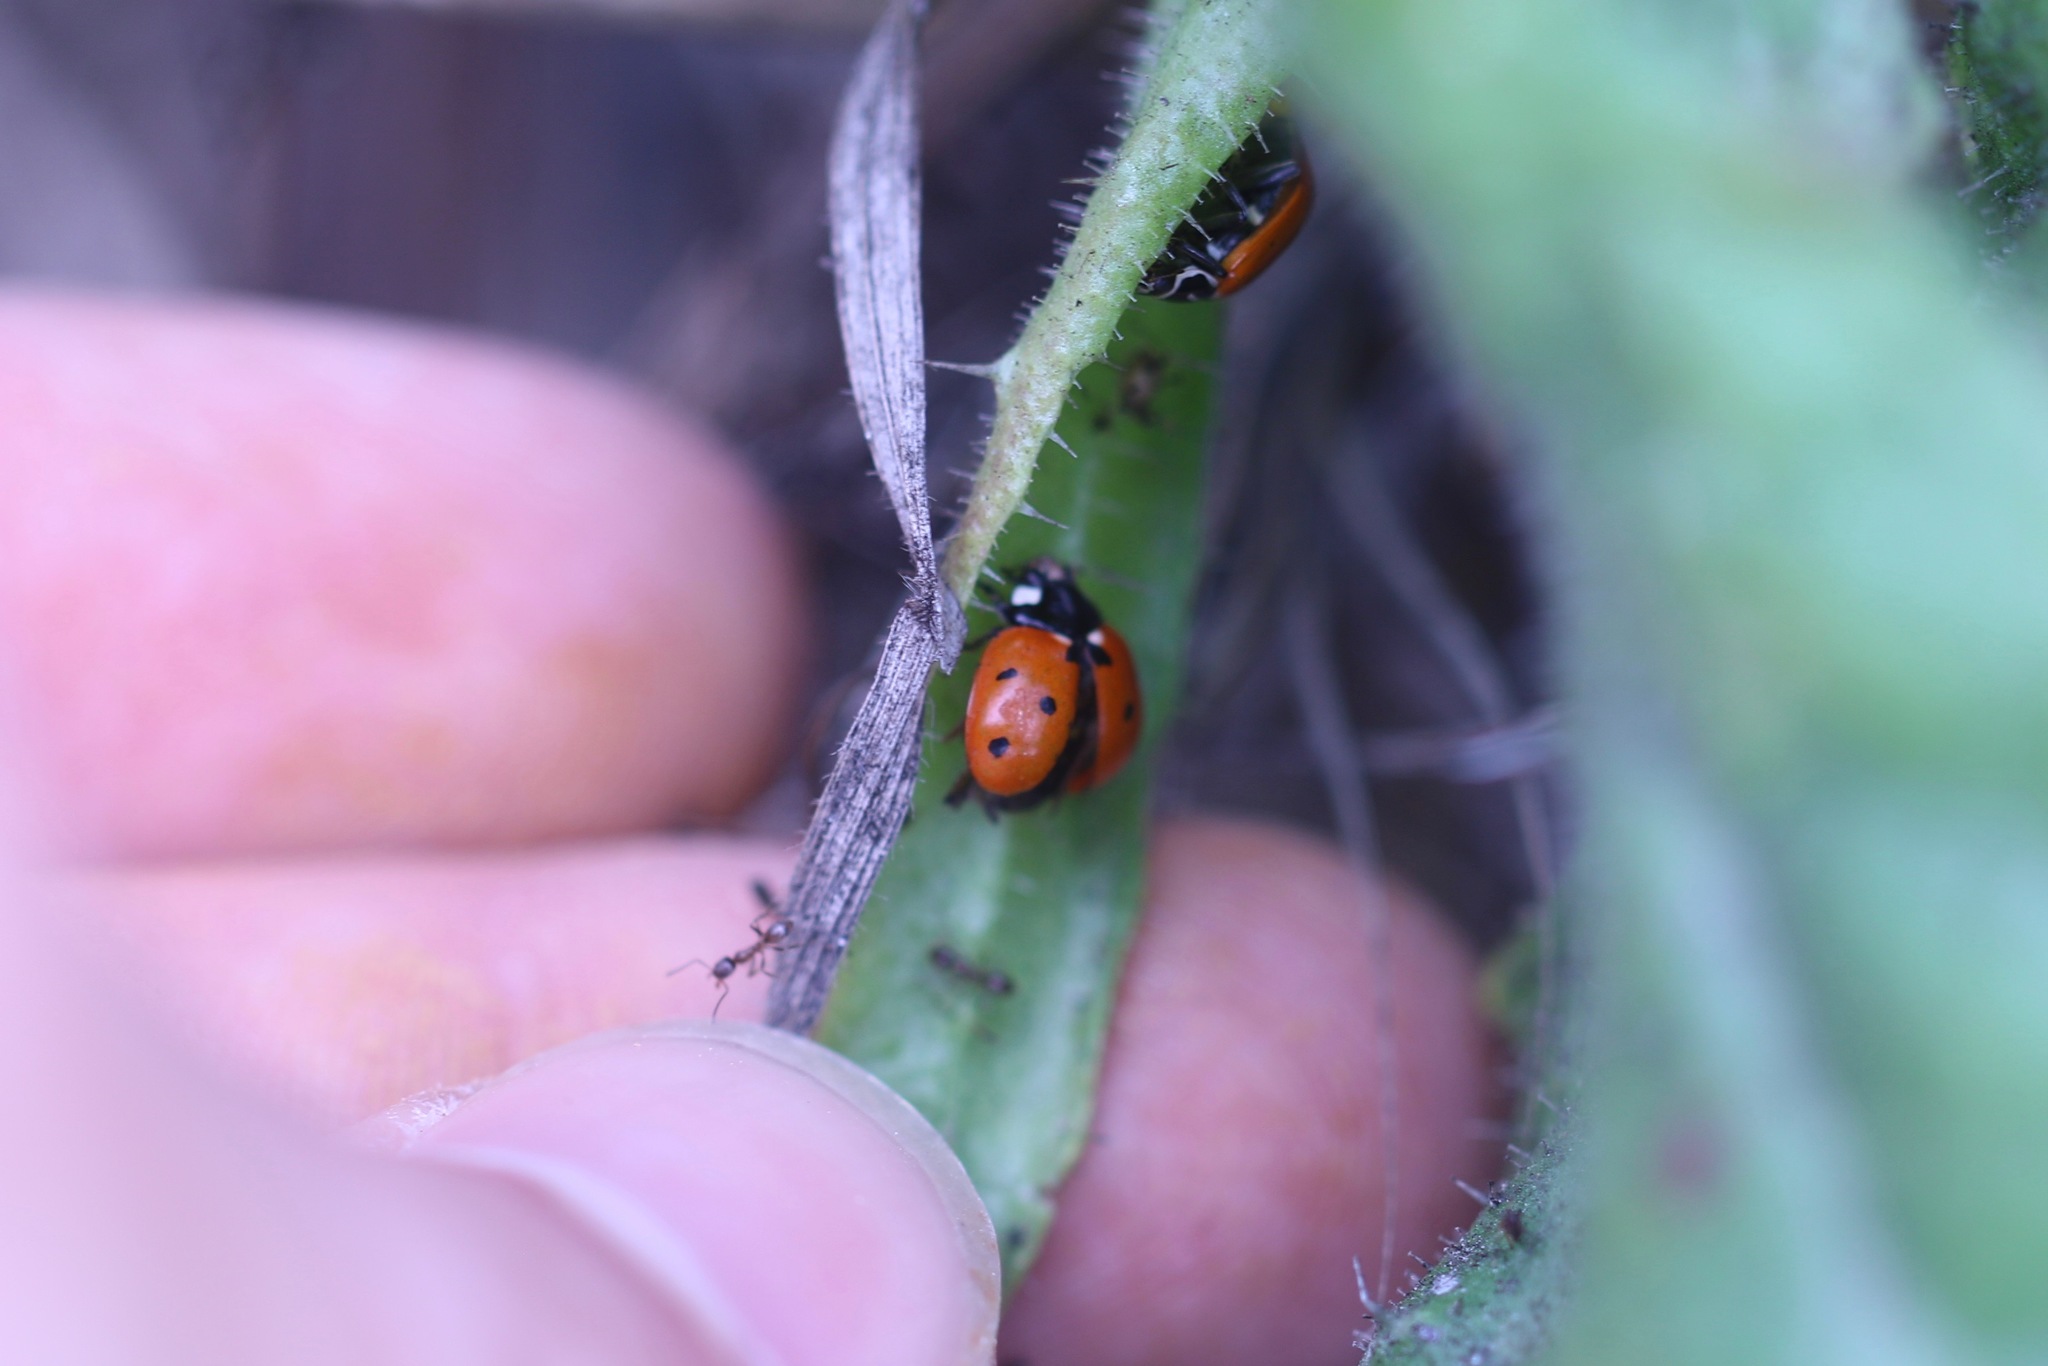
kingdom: Animalia
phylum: Arthropoda
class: Insecta
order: Coleoptera
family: Coccinellidae
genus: Coccinella
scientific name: Coccinella septempunctata
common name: Sevenspotted lady beetle
